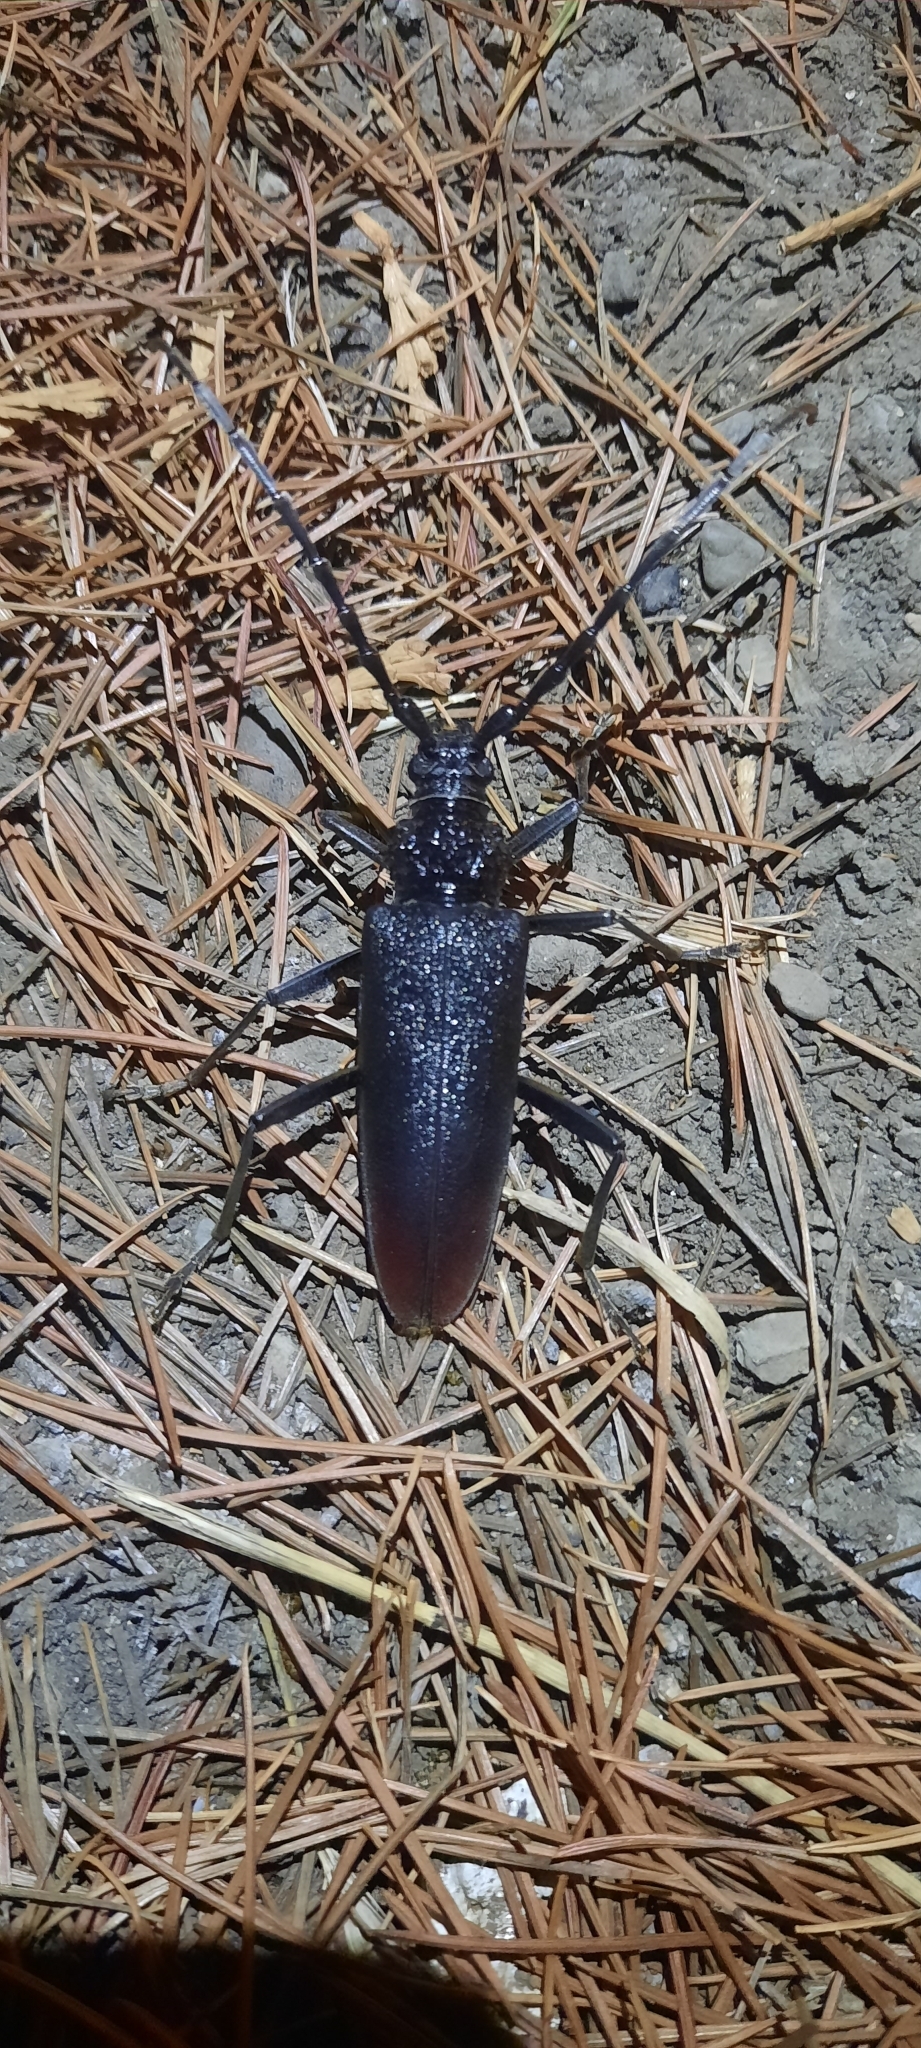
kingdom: Animalia
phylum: Arthropoda
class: Insecta
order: Coleoptera
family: Cerambycidae
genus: Cerambyx
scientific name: Cerambyx cerdo
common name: Cerambyx longicorn
